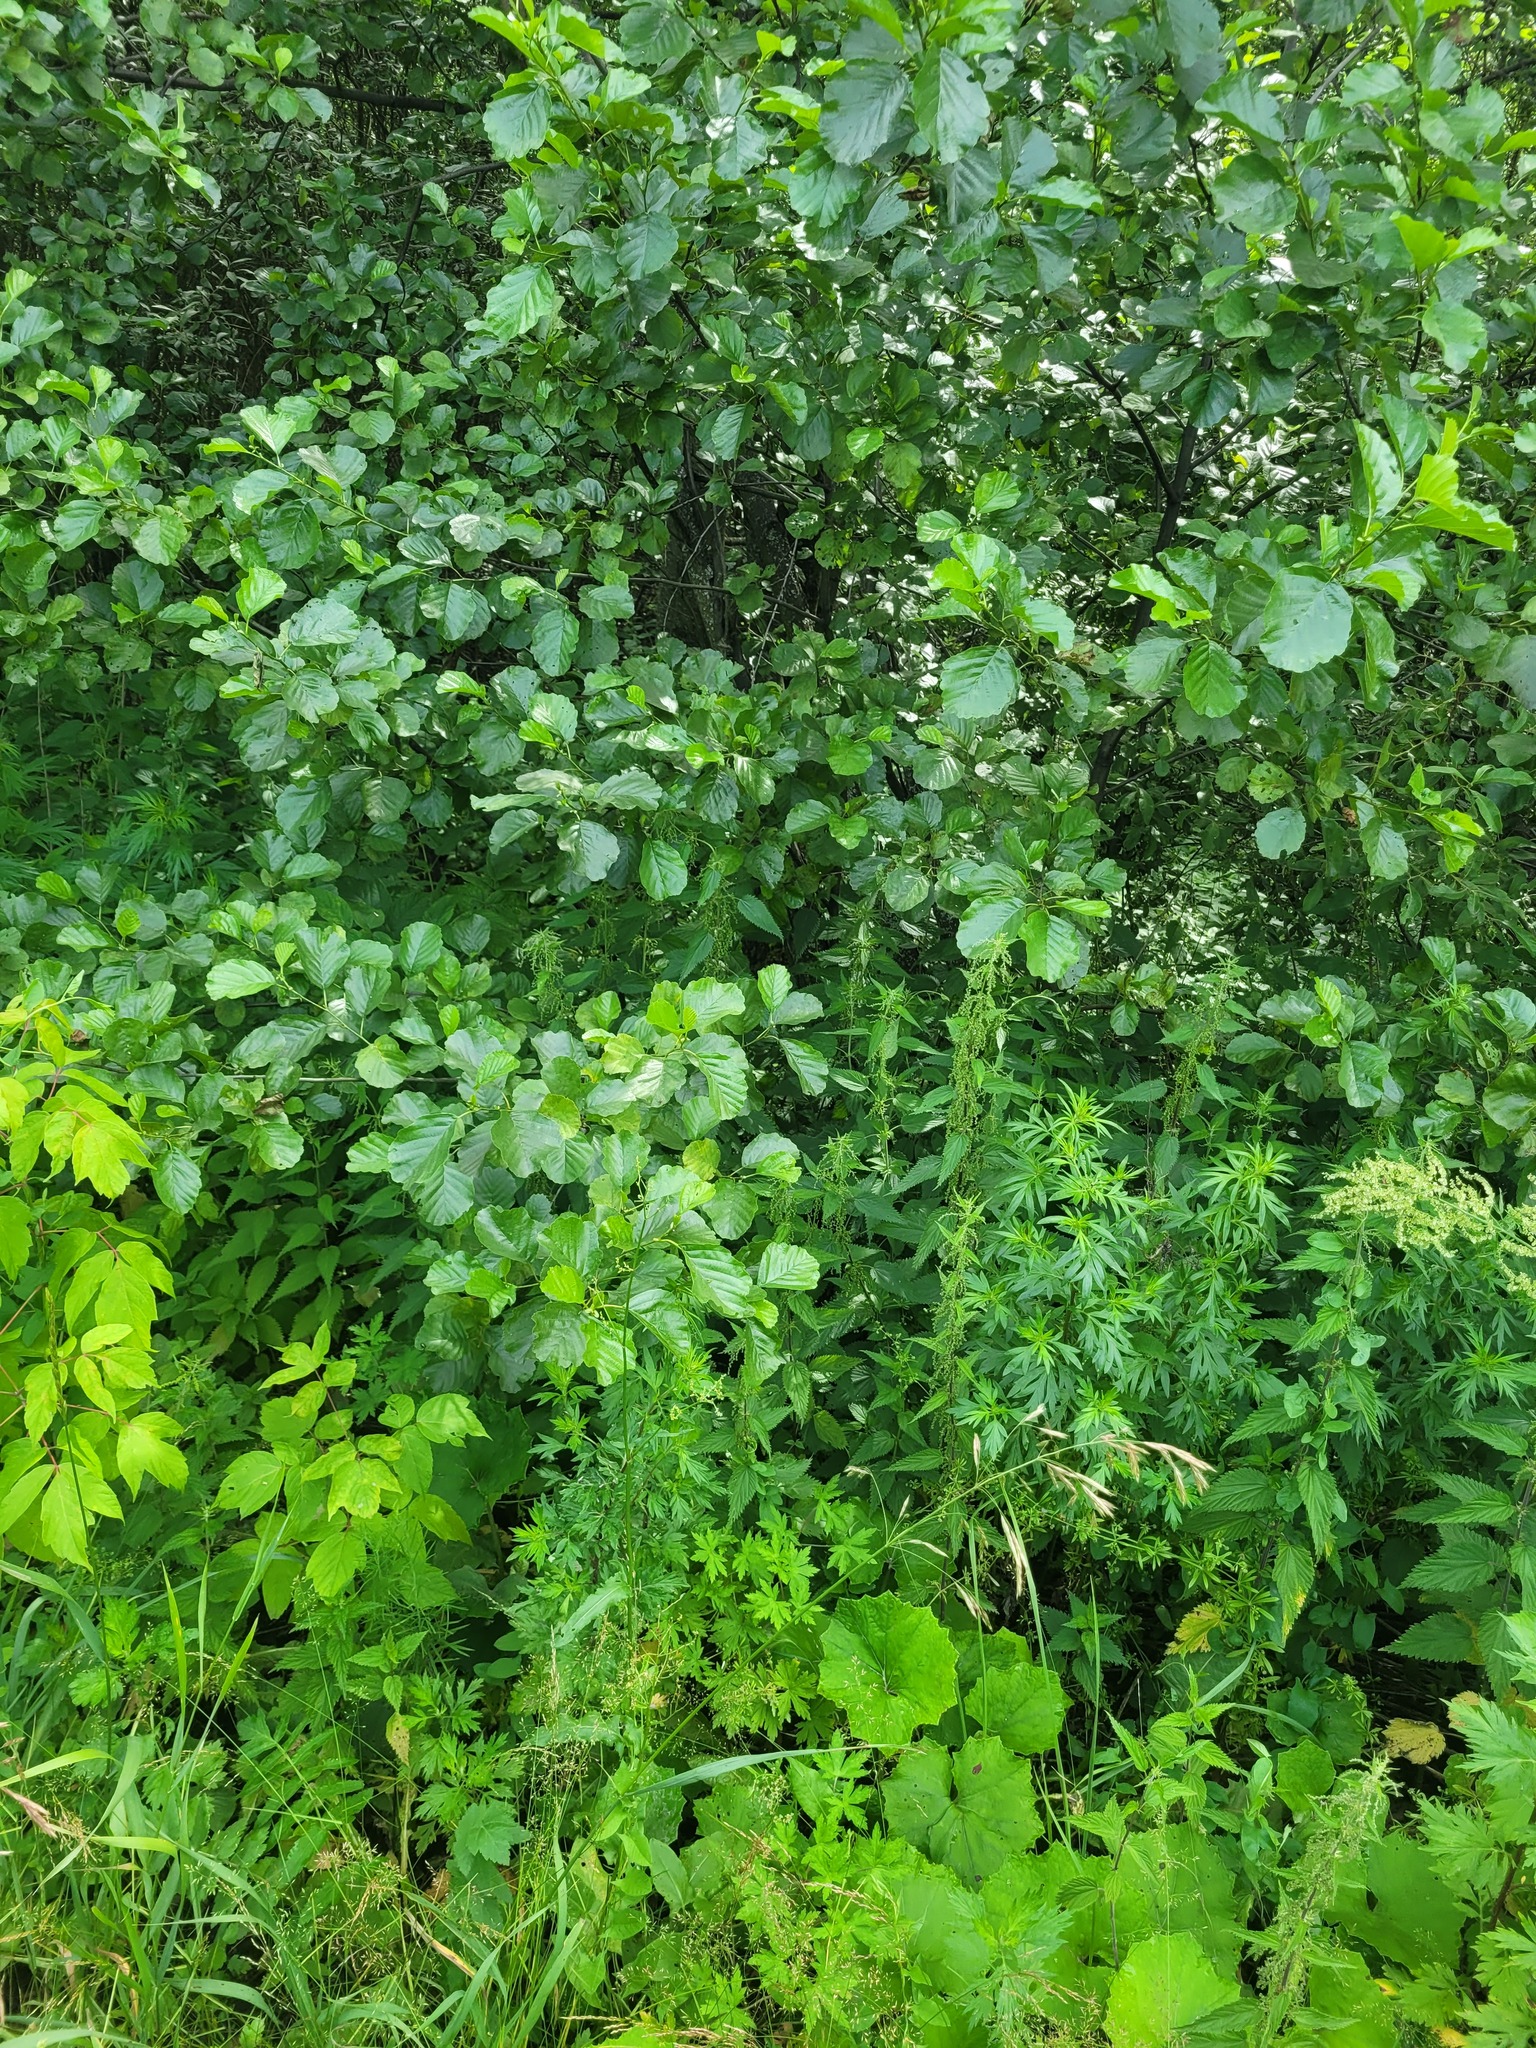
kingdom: Plantae
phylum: Tracheophyta
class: Magnoliopsida
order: Fagales
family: Betulaceae
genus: Alnus
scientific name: Alnus glutinosa
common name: Black alder
